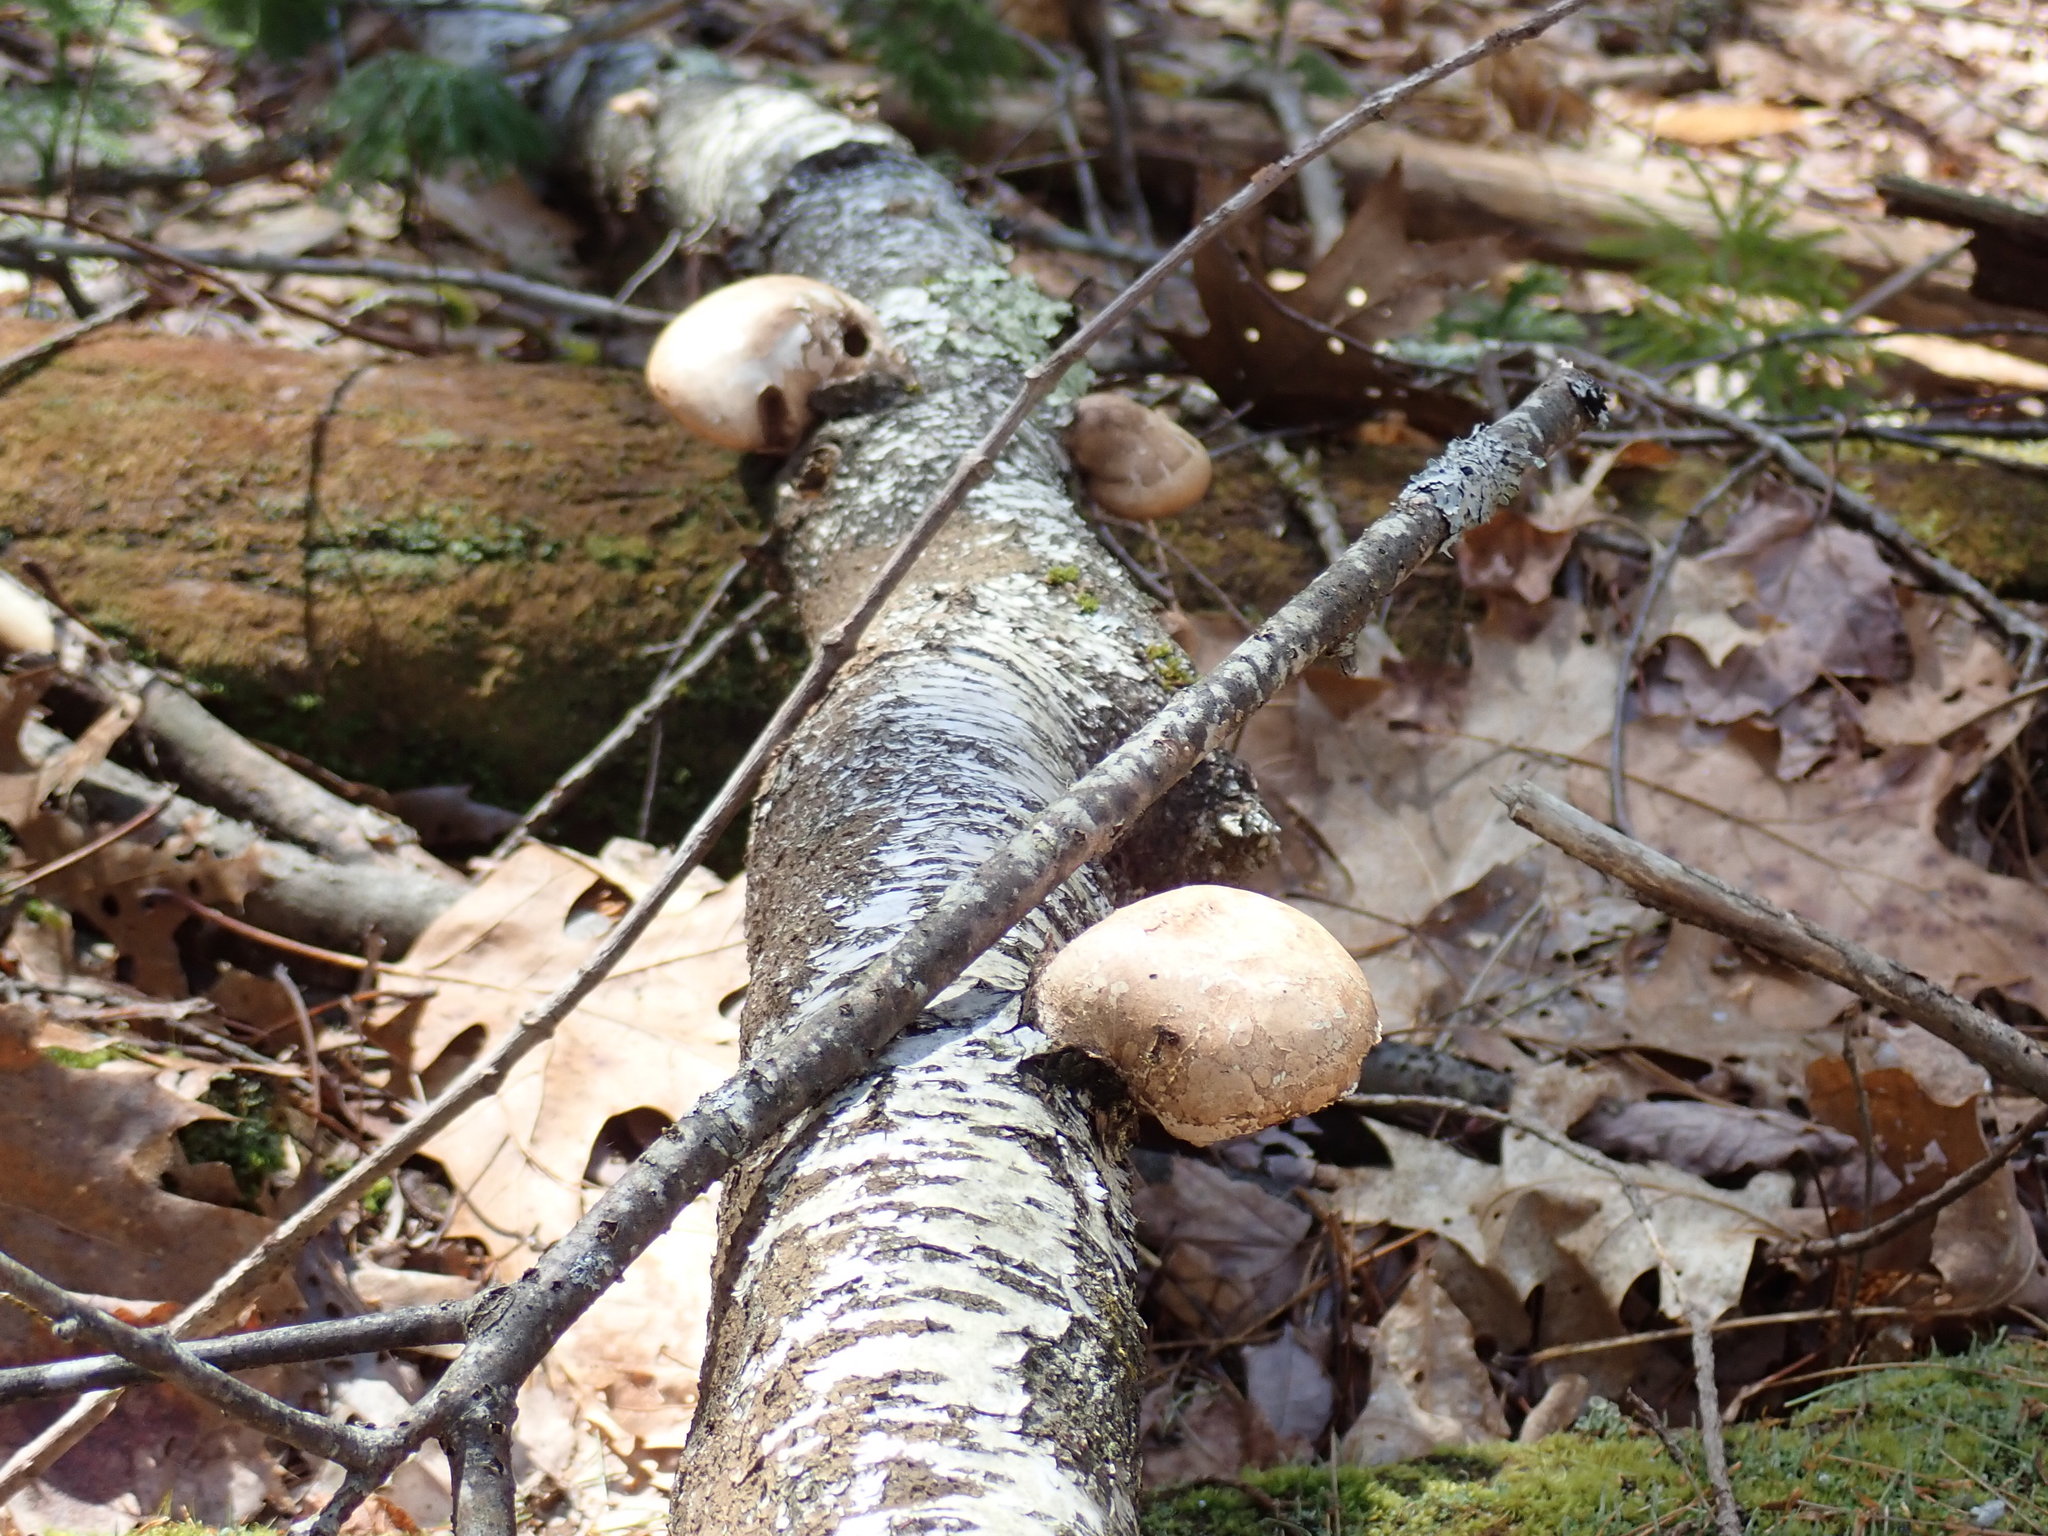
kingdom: Fungi
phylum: Basidiomycota
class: Agaricomycetes
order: Polyporales
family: Fomitopsidaceae
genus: Fomitopsis
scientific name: Fomitopsis betulina
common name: Birch polypore
